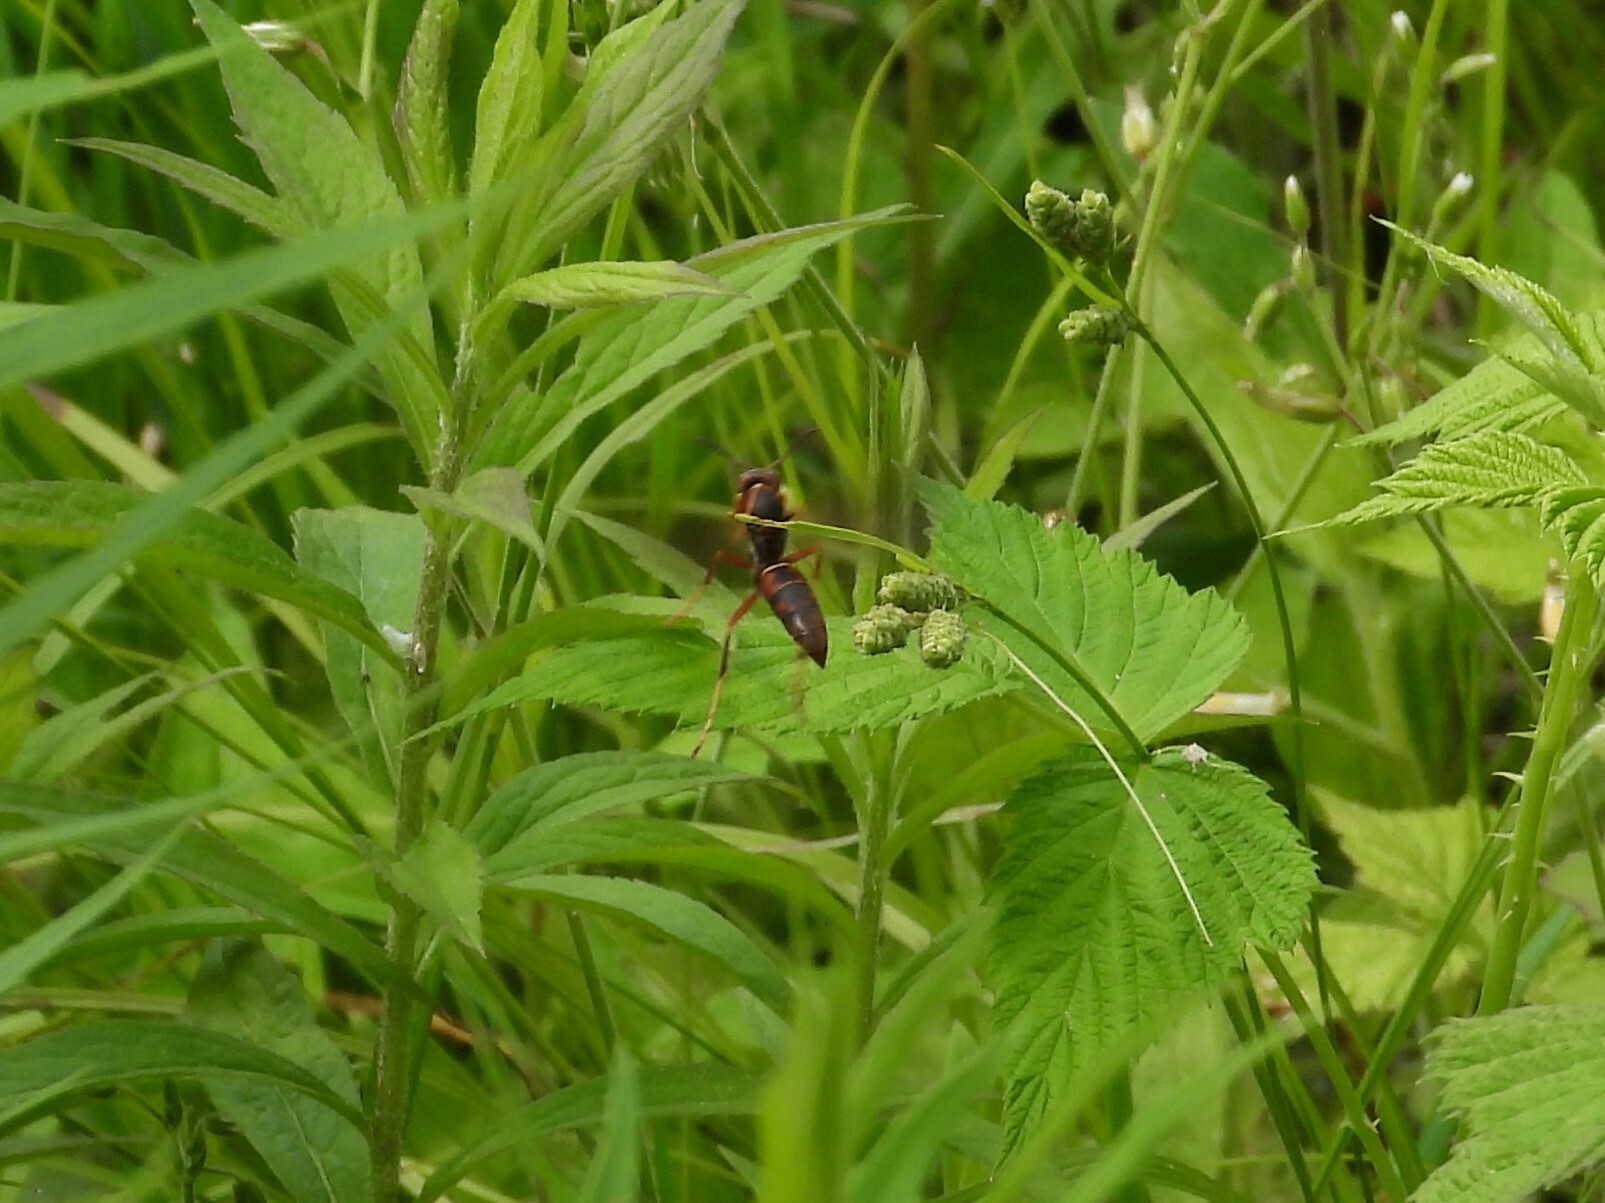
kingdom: Animalia
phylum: Arthropoda
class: Insecta
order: Hymenoptera
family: Eumenidae
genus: Polistes
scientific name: Polistes fuscatus
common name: Dark paper wasp
